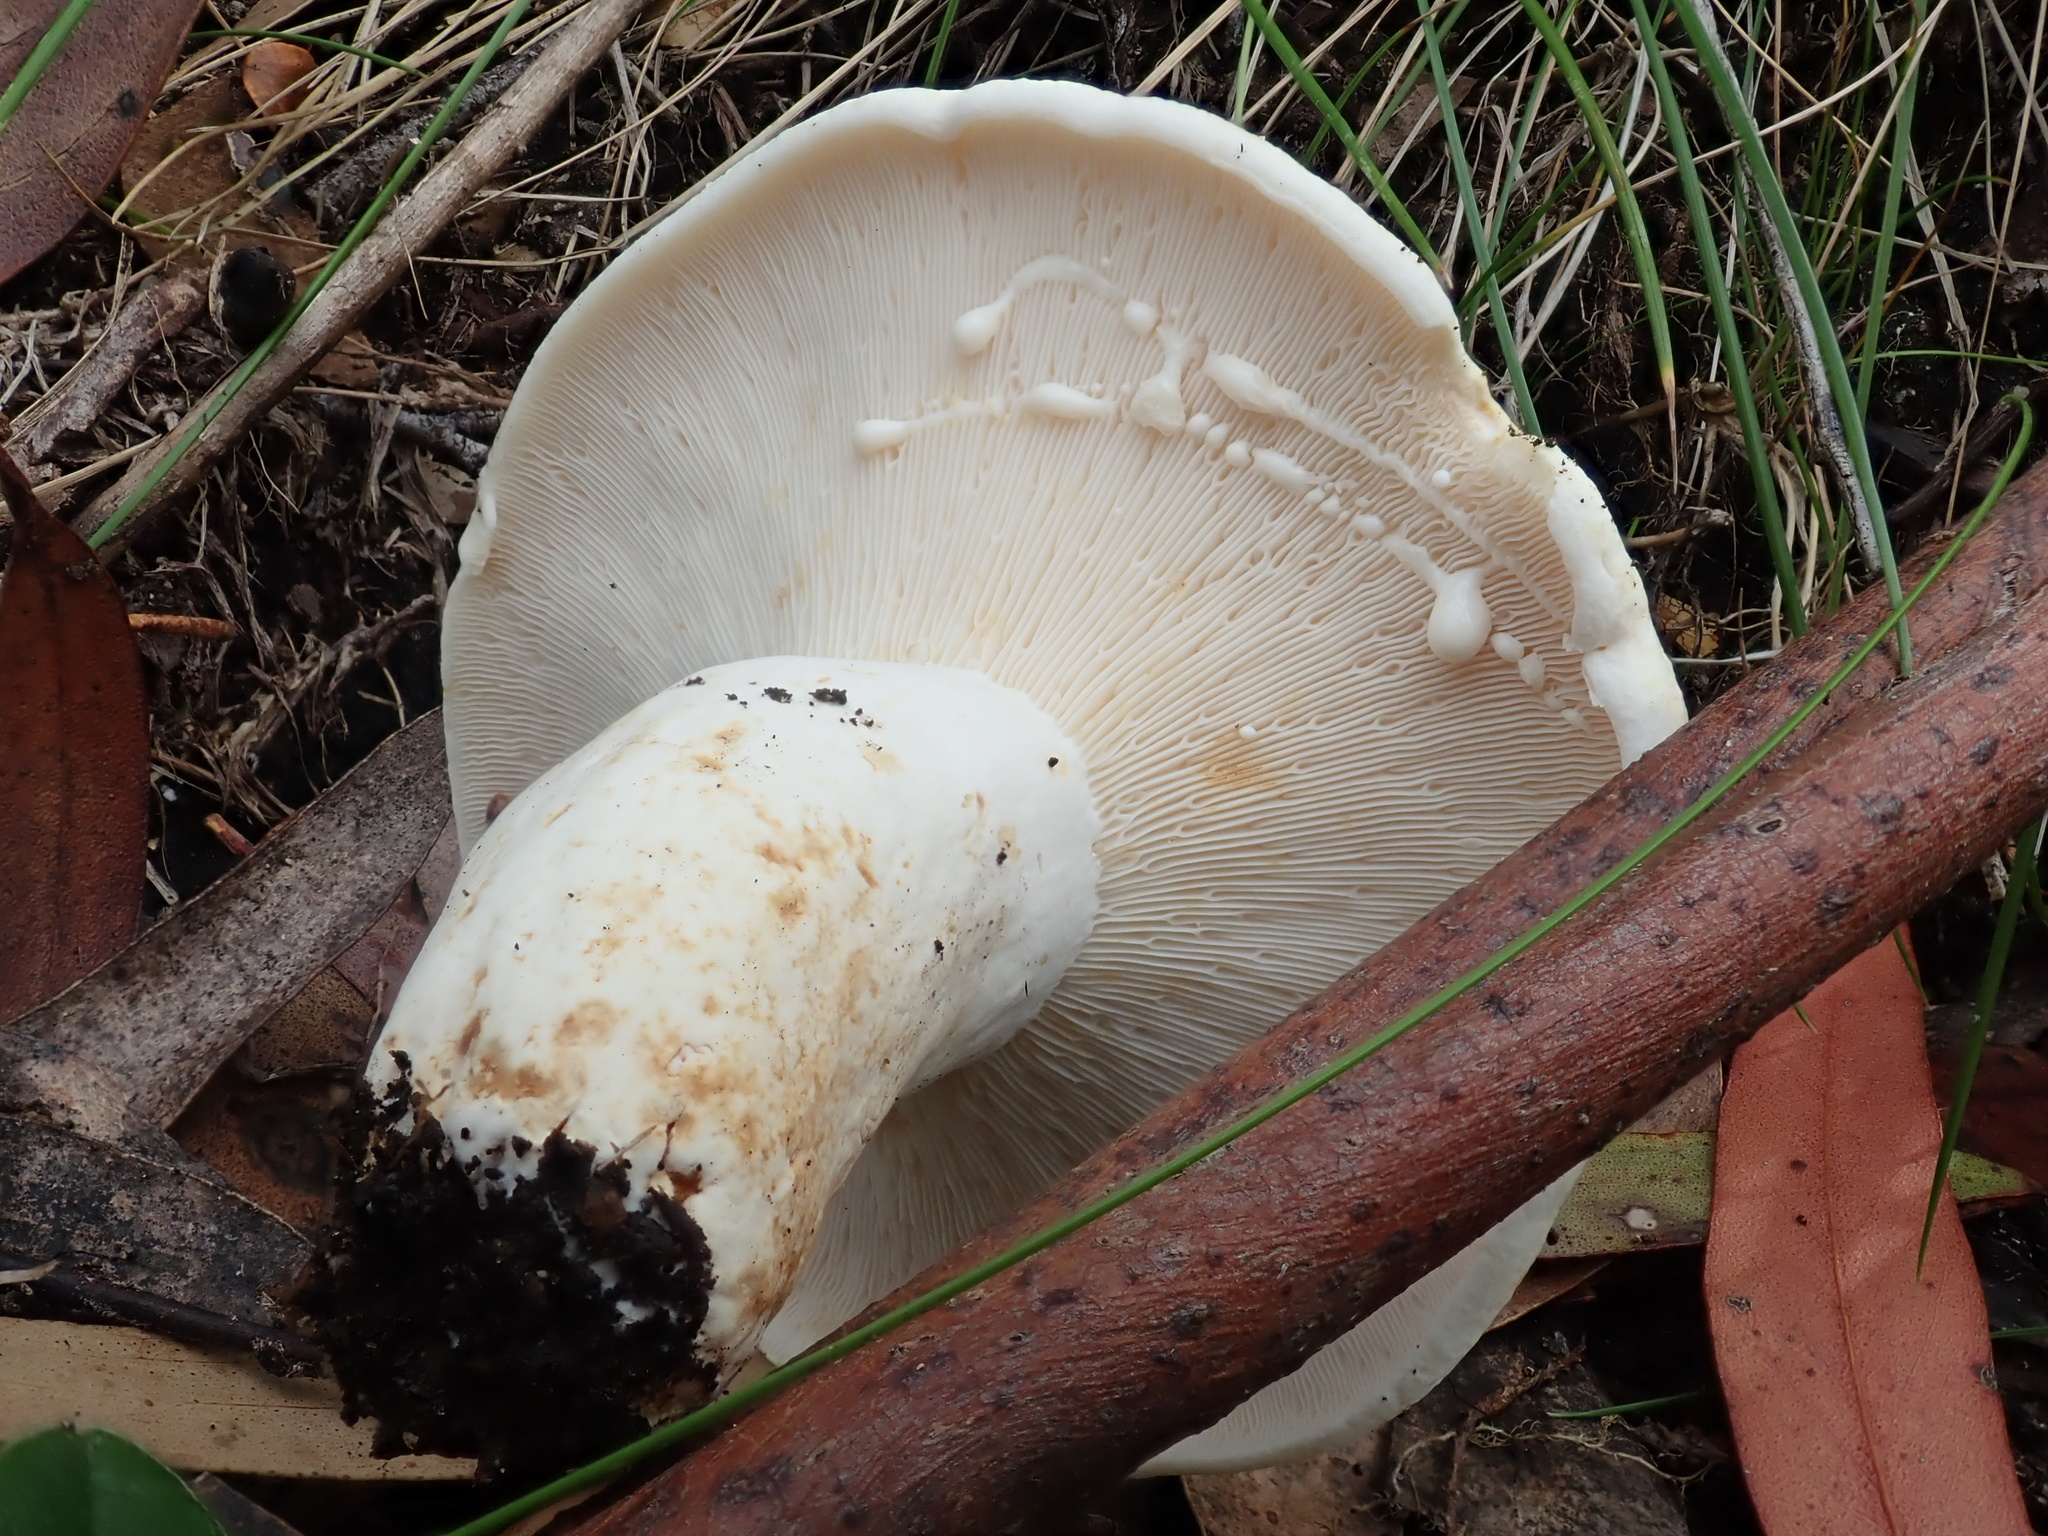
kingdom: Fungi
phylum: Basidiomycota
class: Agaricomycetes
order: Russulales
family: Russulaceae
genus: Lactifluus
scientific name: Lactifluus albopicrus
